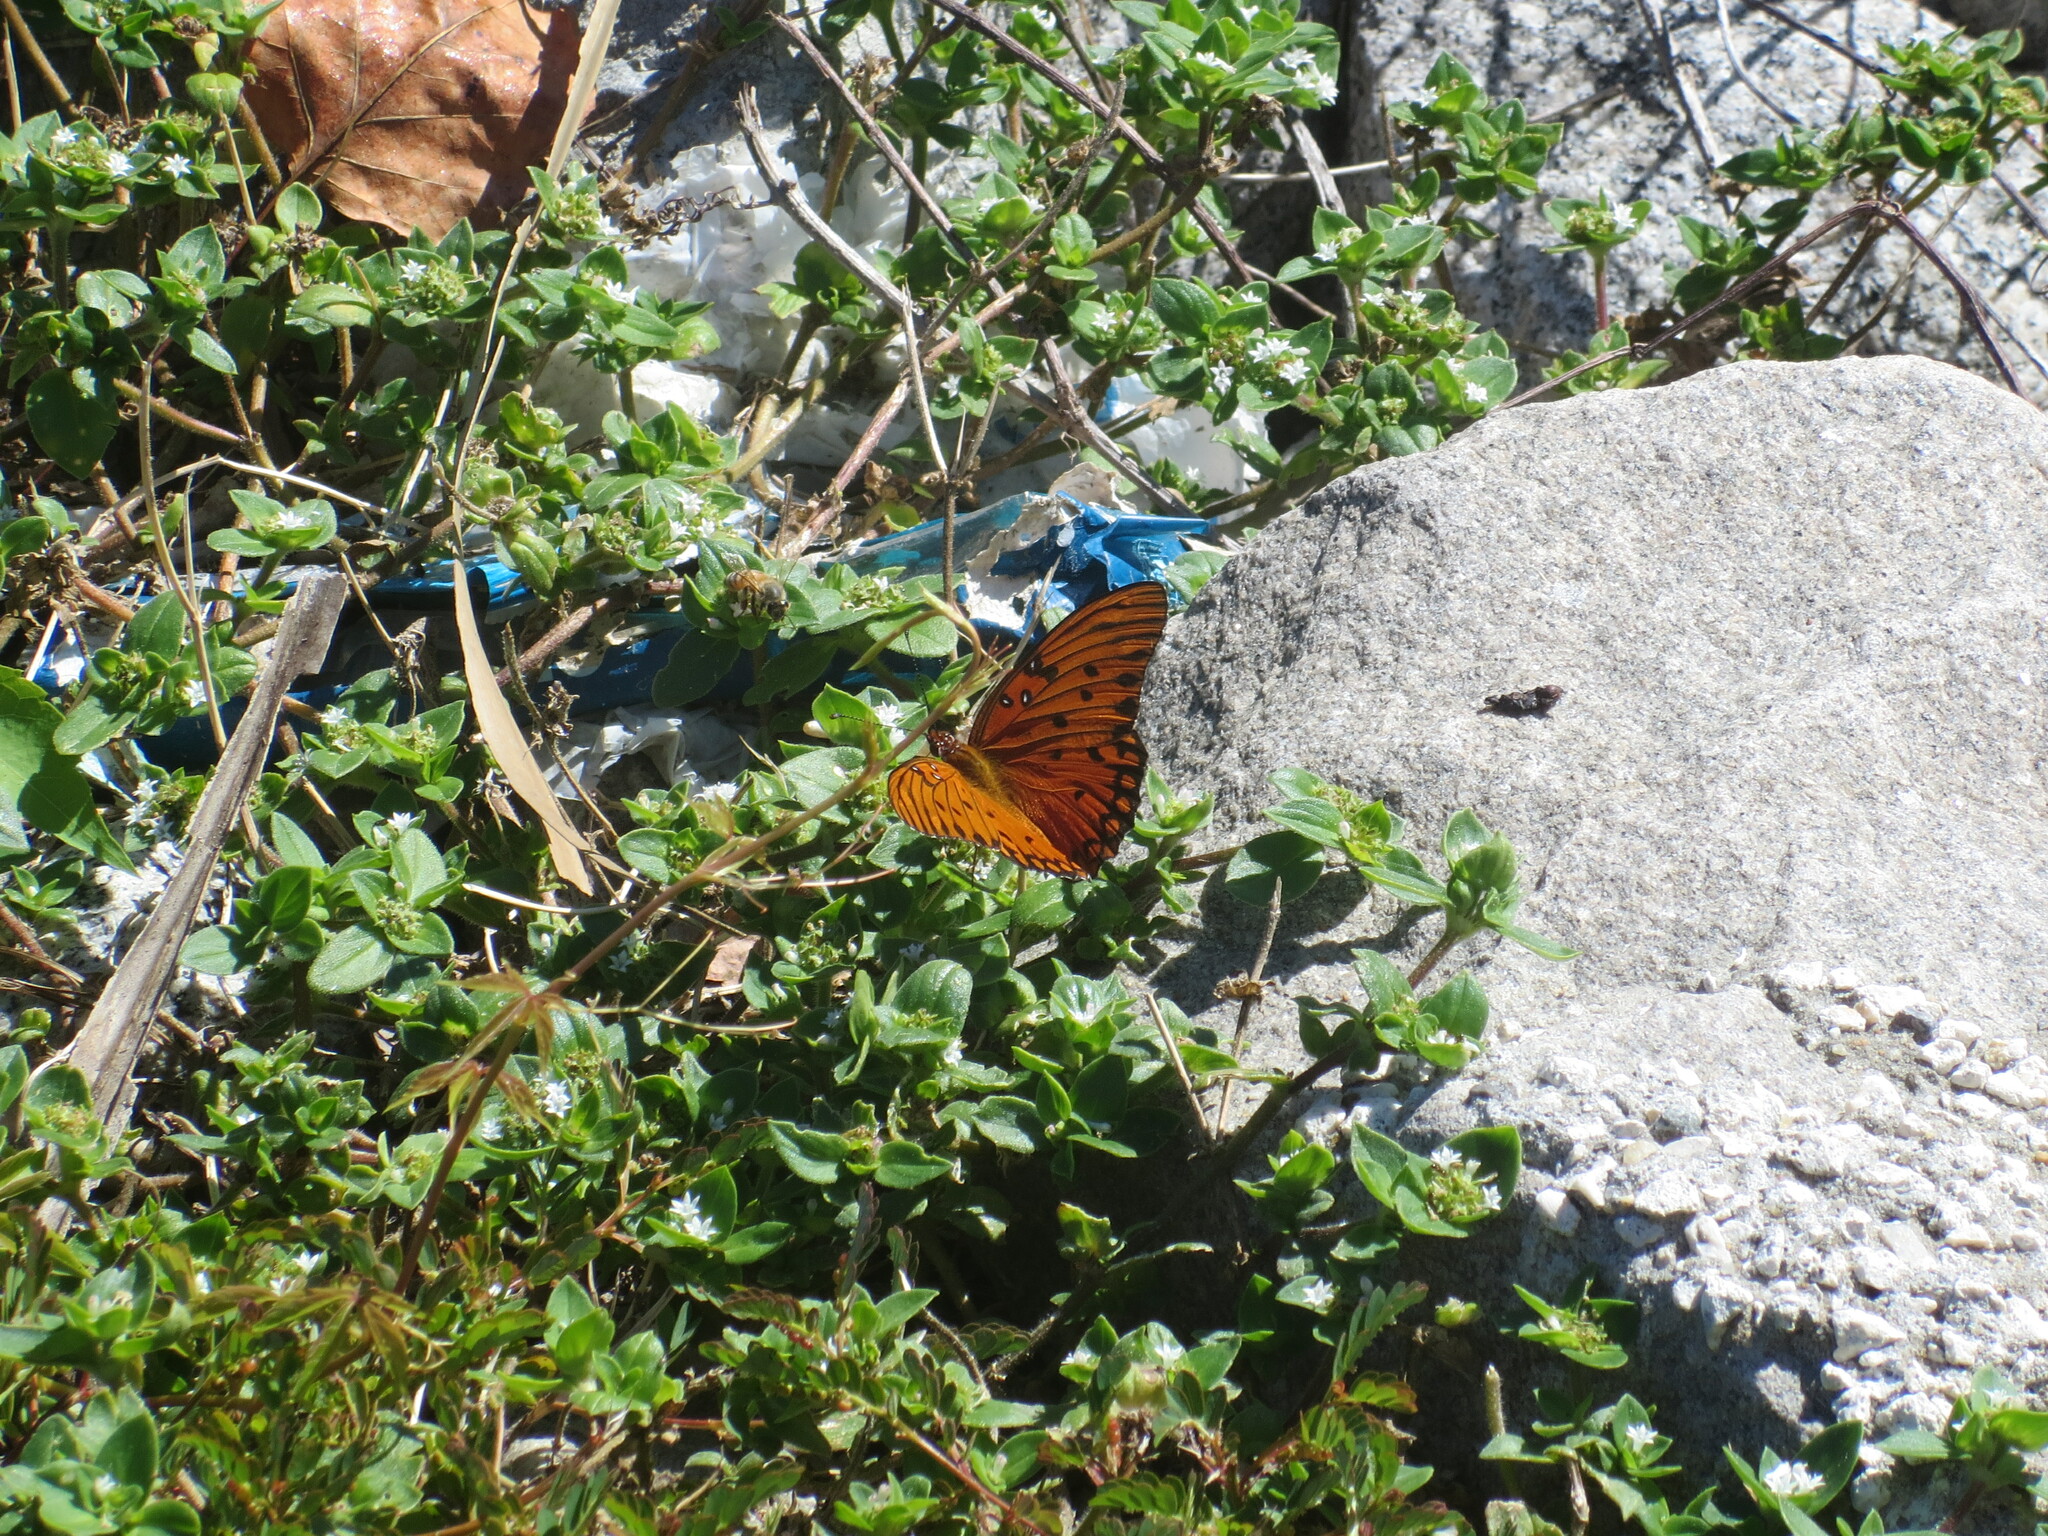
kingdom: Animalia
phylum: Arthropoda
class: Insecta
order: Lepidoptera
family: Nymphalidae
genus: Dione
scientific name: Dione vanillae
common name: Gulf fritillary
